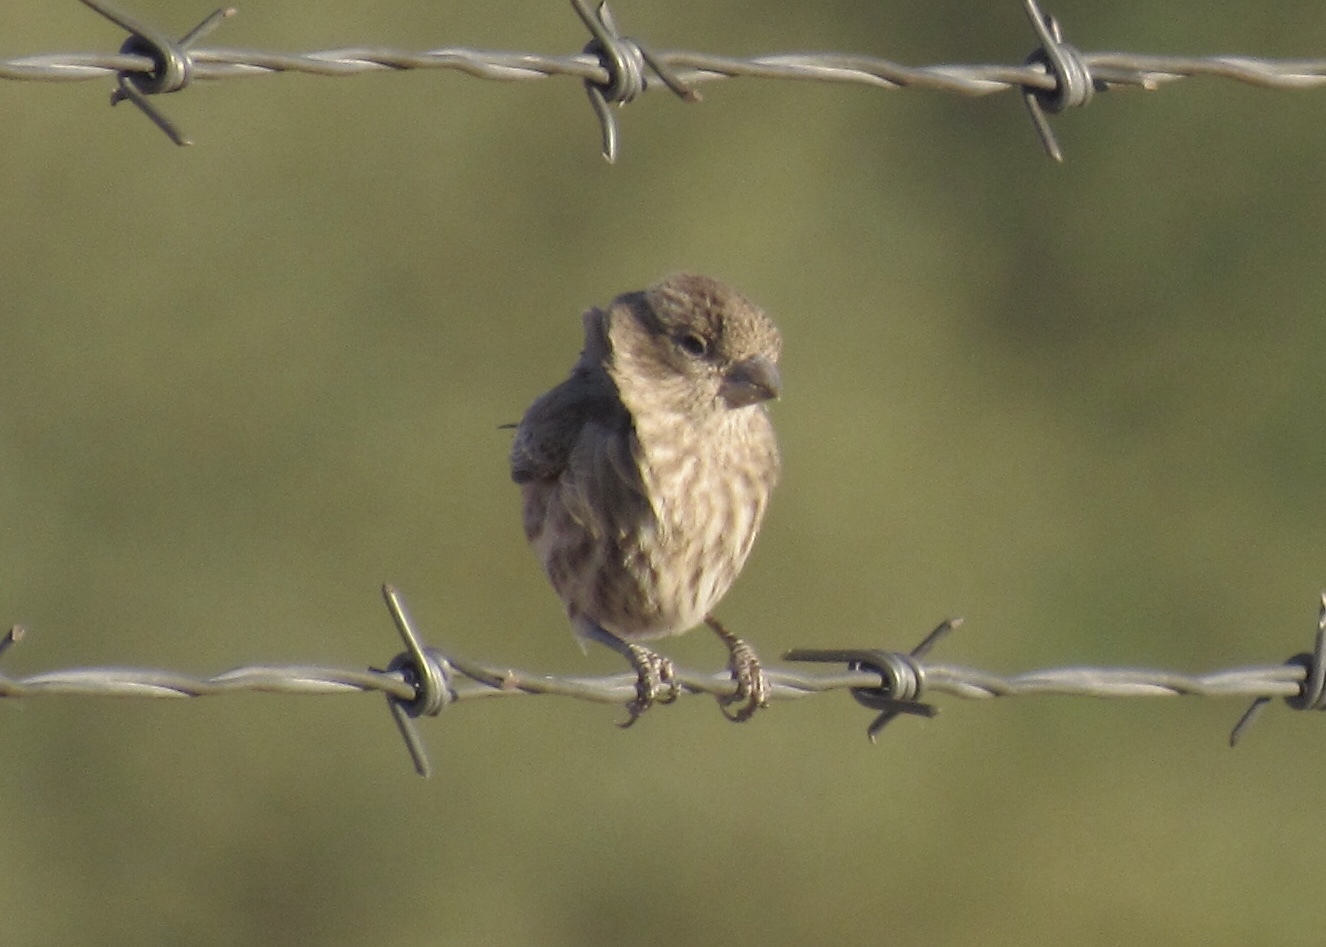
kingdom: Animalia
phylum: Chordata
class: Aves
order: Passeriformes
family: Fringillidae
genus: Haemorhous
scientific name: Haemorhous mexicanus
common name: House finch
